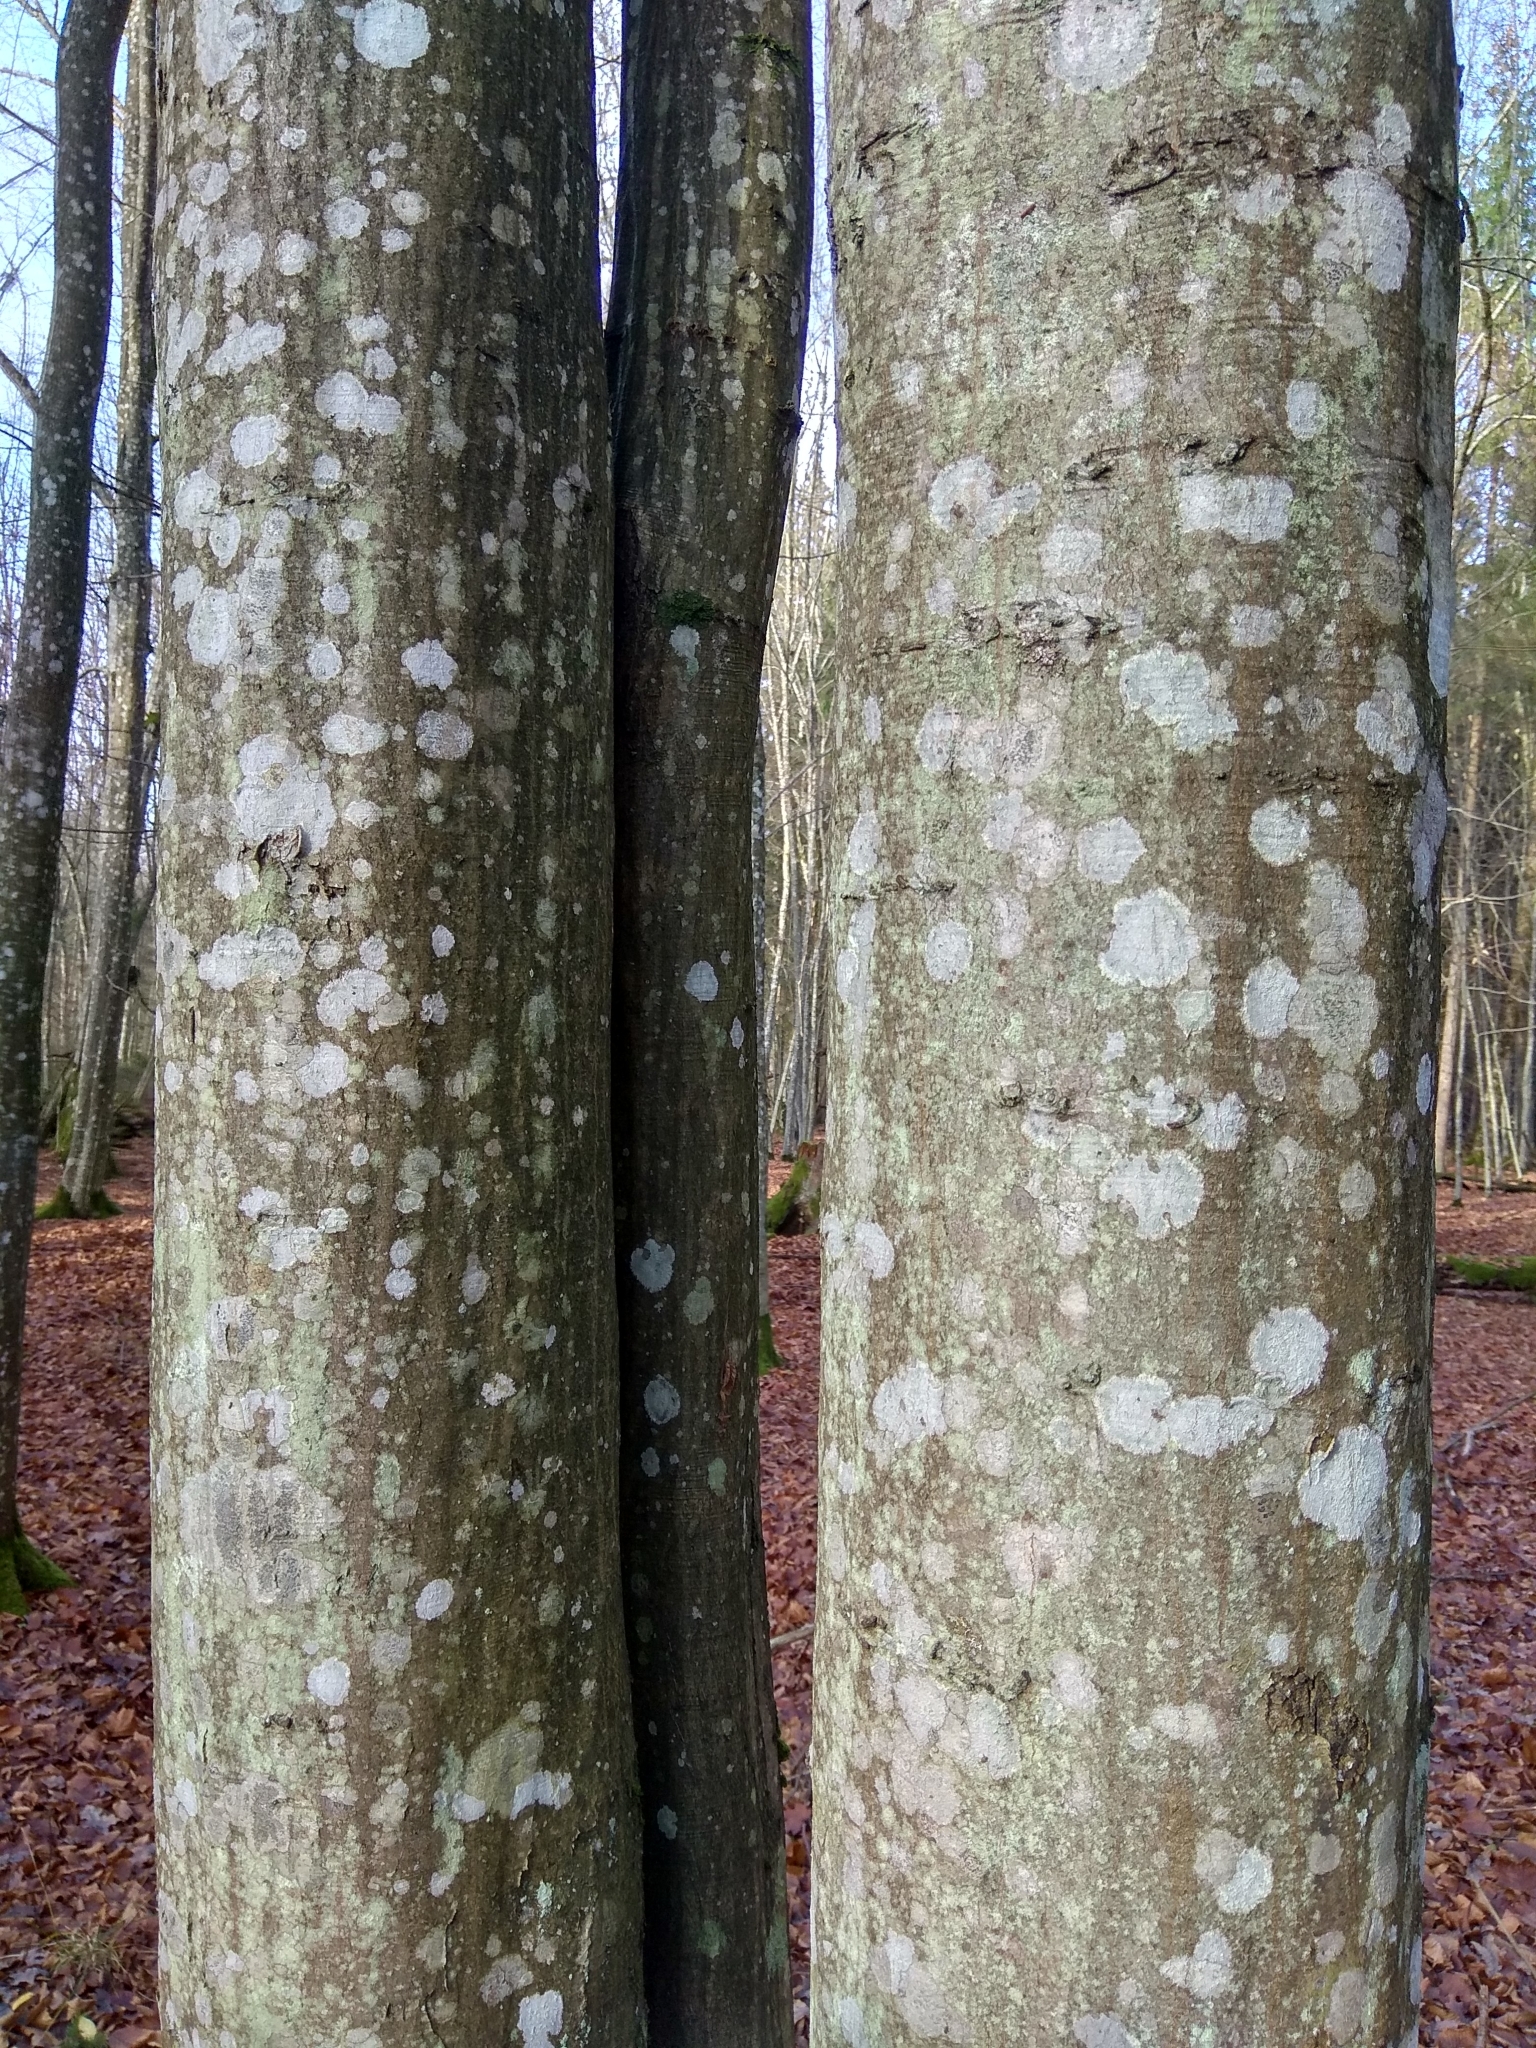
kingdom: Plantae
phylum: Tracheophyta
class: Magnoliopsida
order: Fagales
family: Betulaceae
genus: Carpinus
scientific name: Carpinus betulus
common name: Hornbeam
